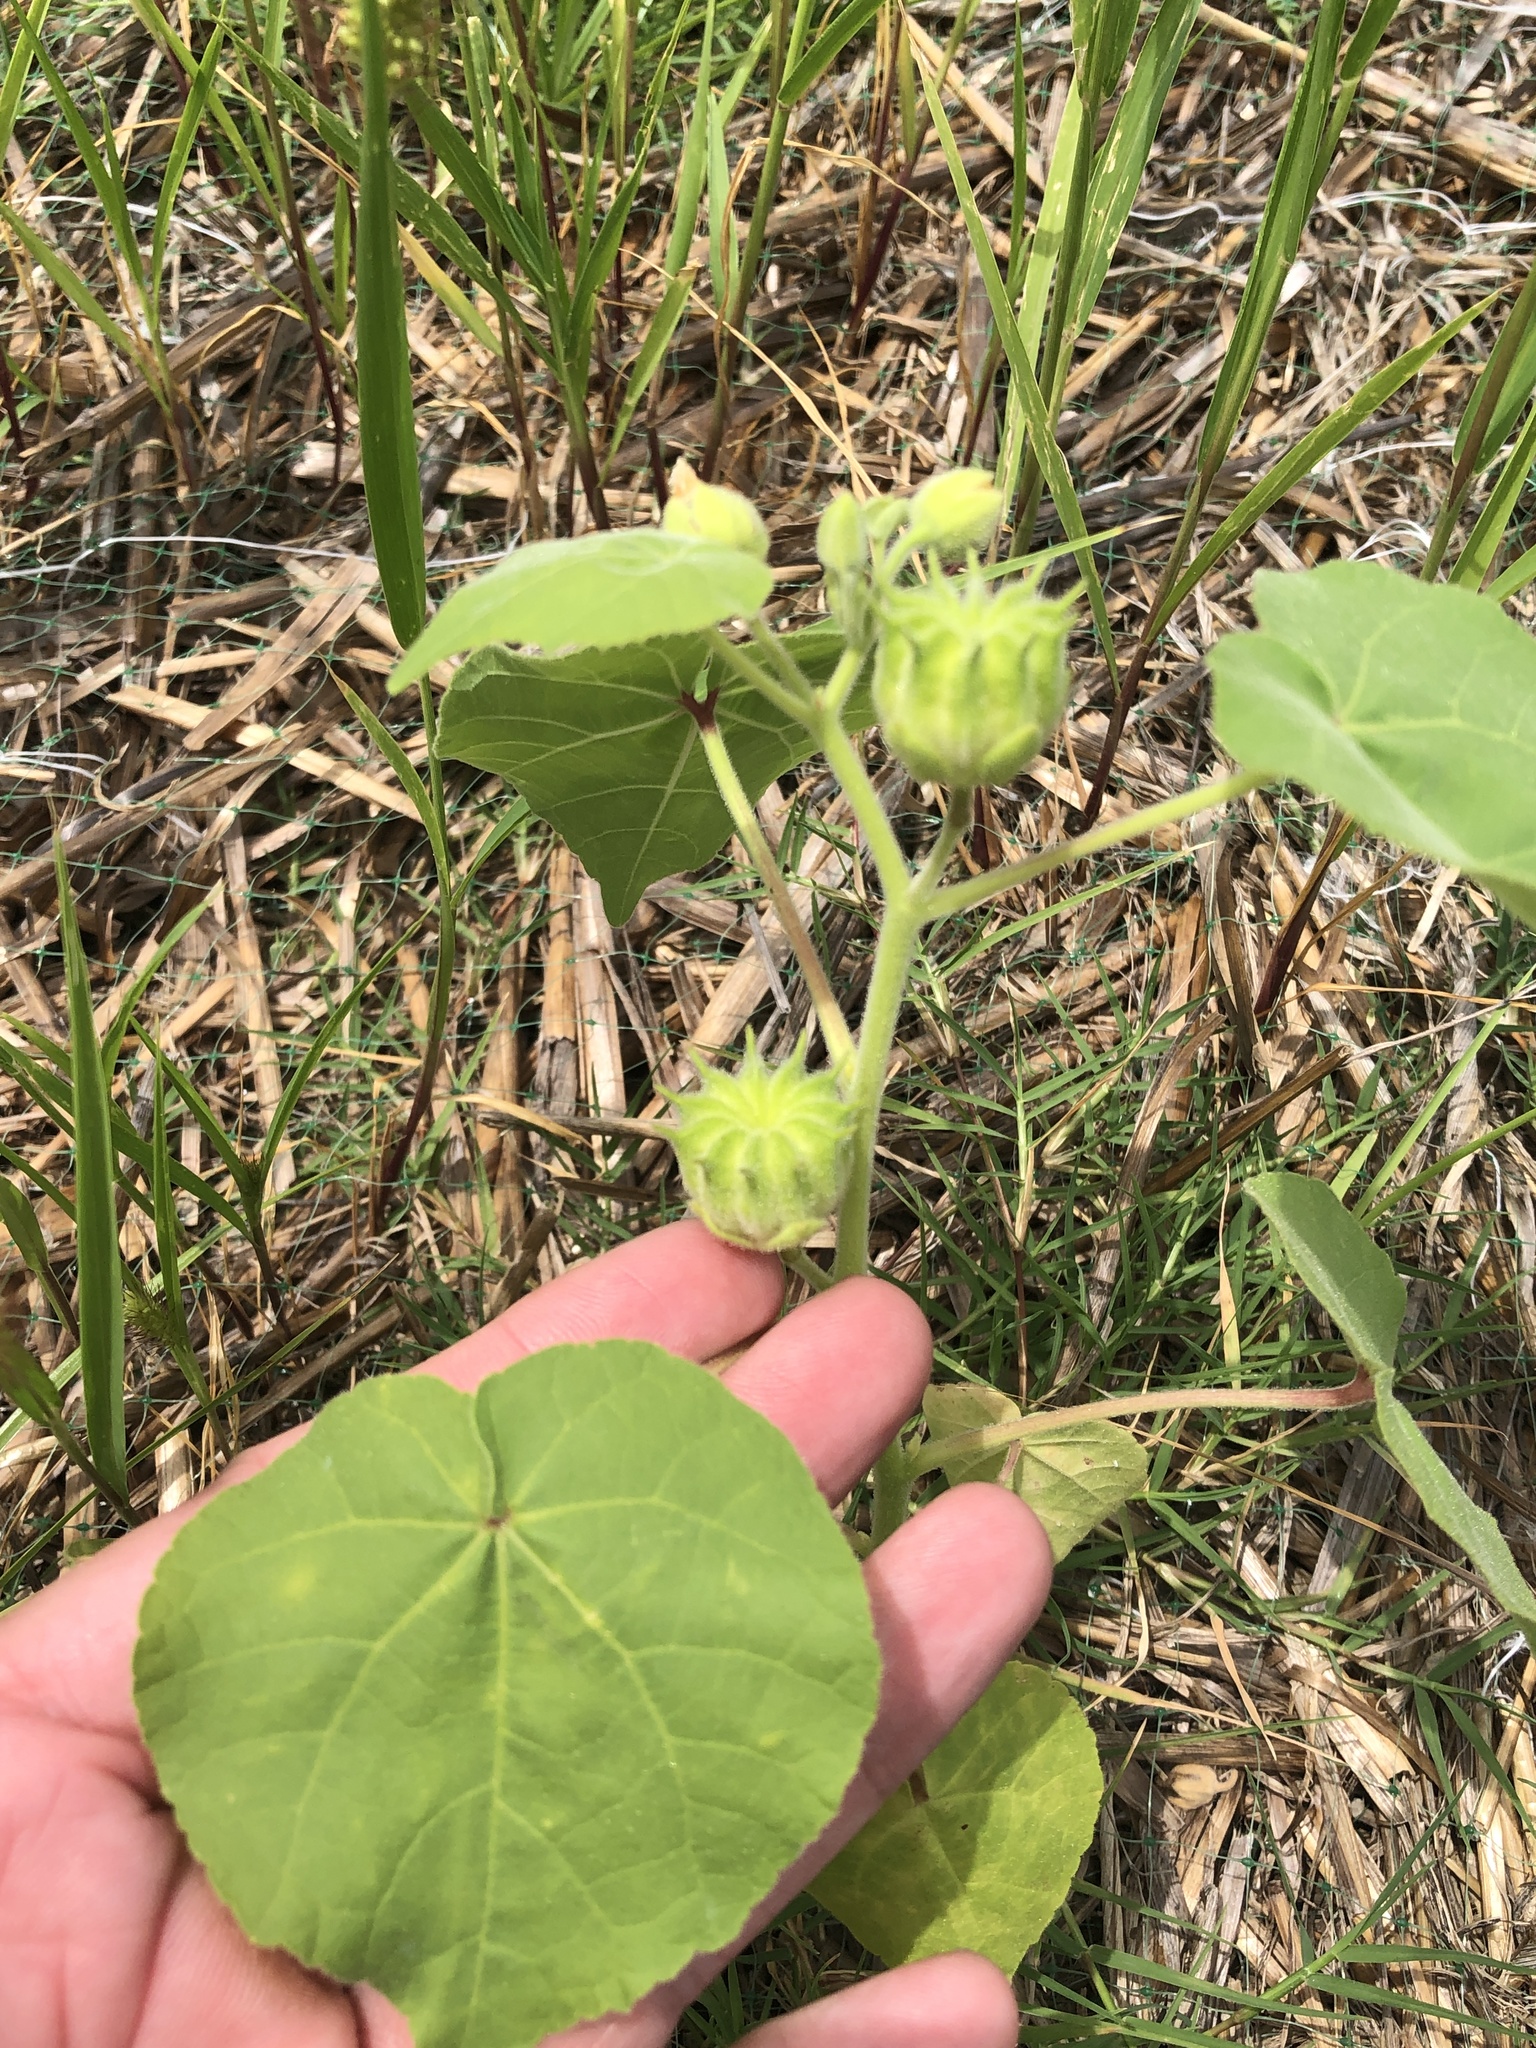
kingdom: Plantae
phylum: Tracheophyta
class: Magnoliopsida
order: Malvales
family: Malvaceae
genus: Abutilon
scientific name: Abutilon theophrasti
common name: Velvetleaf
